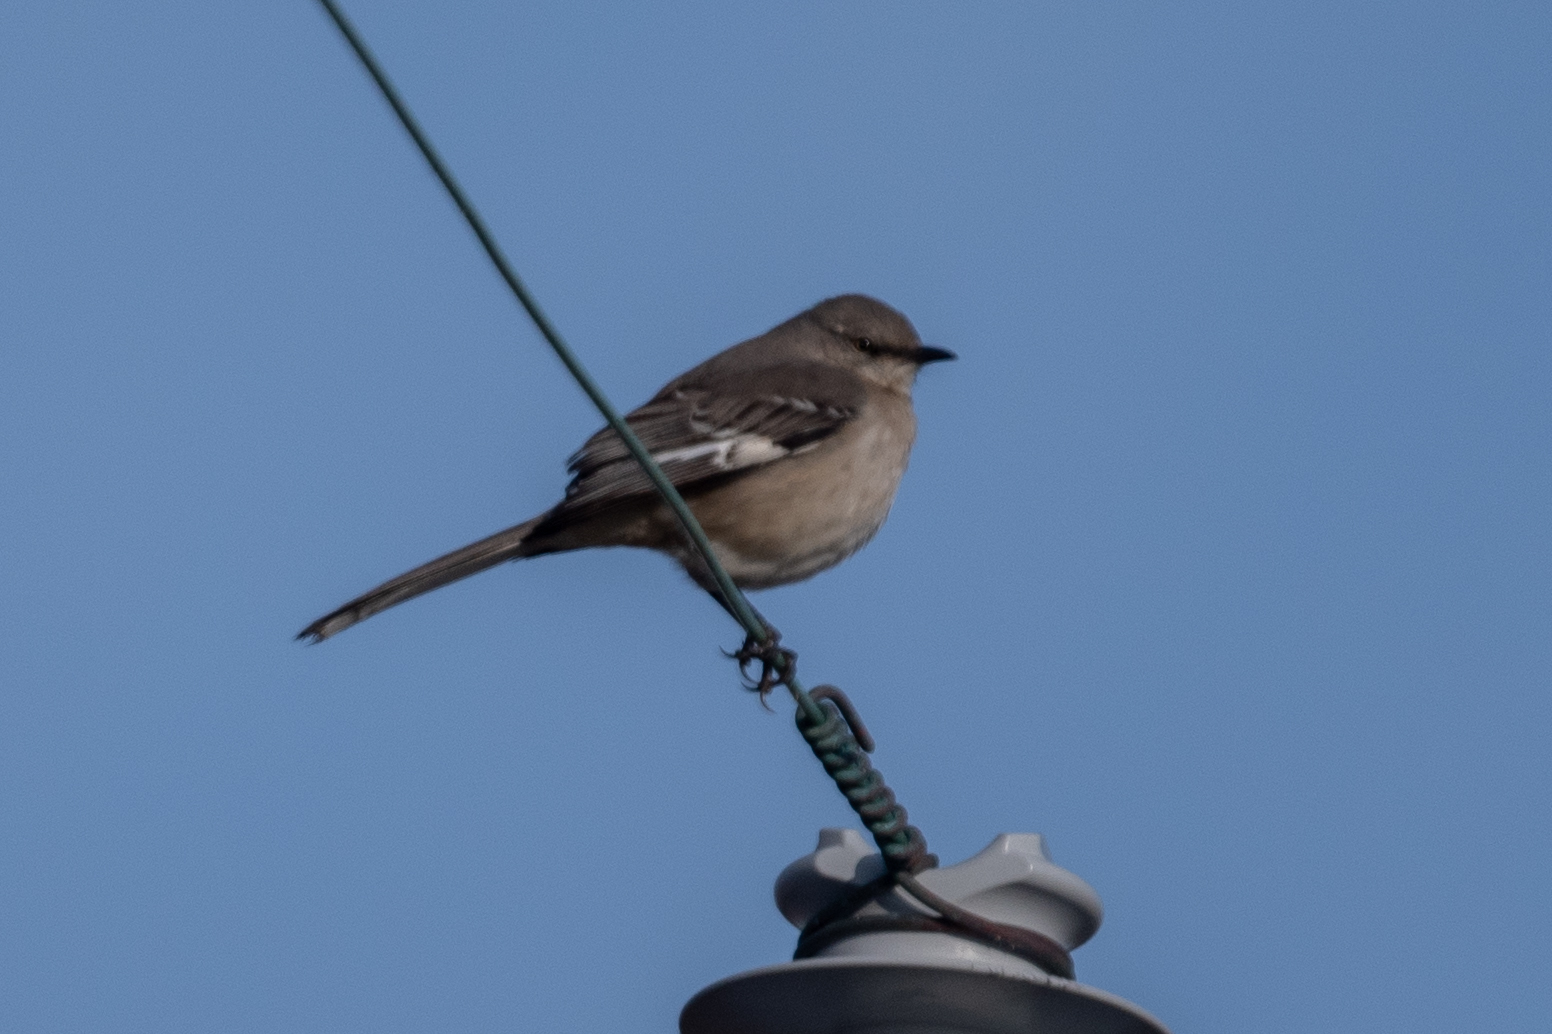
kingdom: Animalia
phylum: Chordata
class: Aves
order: Passeriformes
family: Mimidae
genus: Mimus
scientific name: Mimus polyglottos
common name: Northern mockingbird
